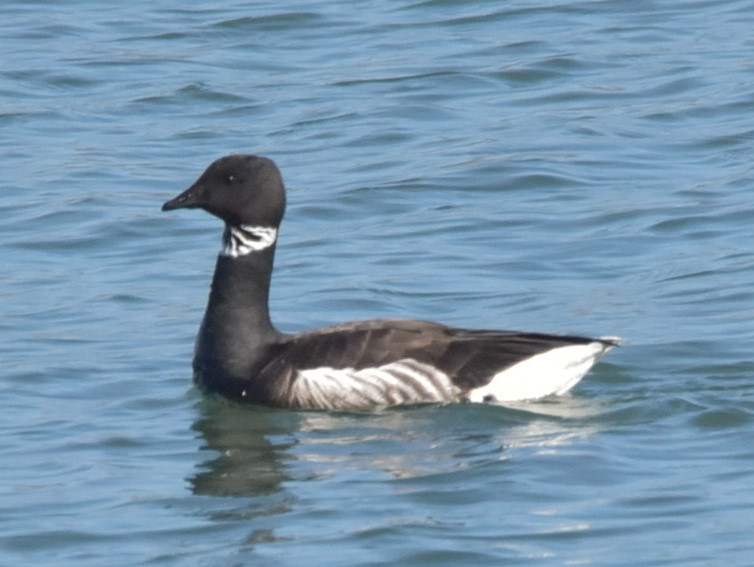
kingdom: Animalia
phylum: Chordata
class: Aves
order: Anseriformes
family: Anatidae
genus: Branta
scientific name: Branta bernicla
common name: Brant goose
